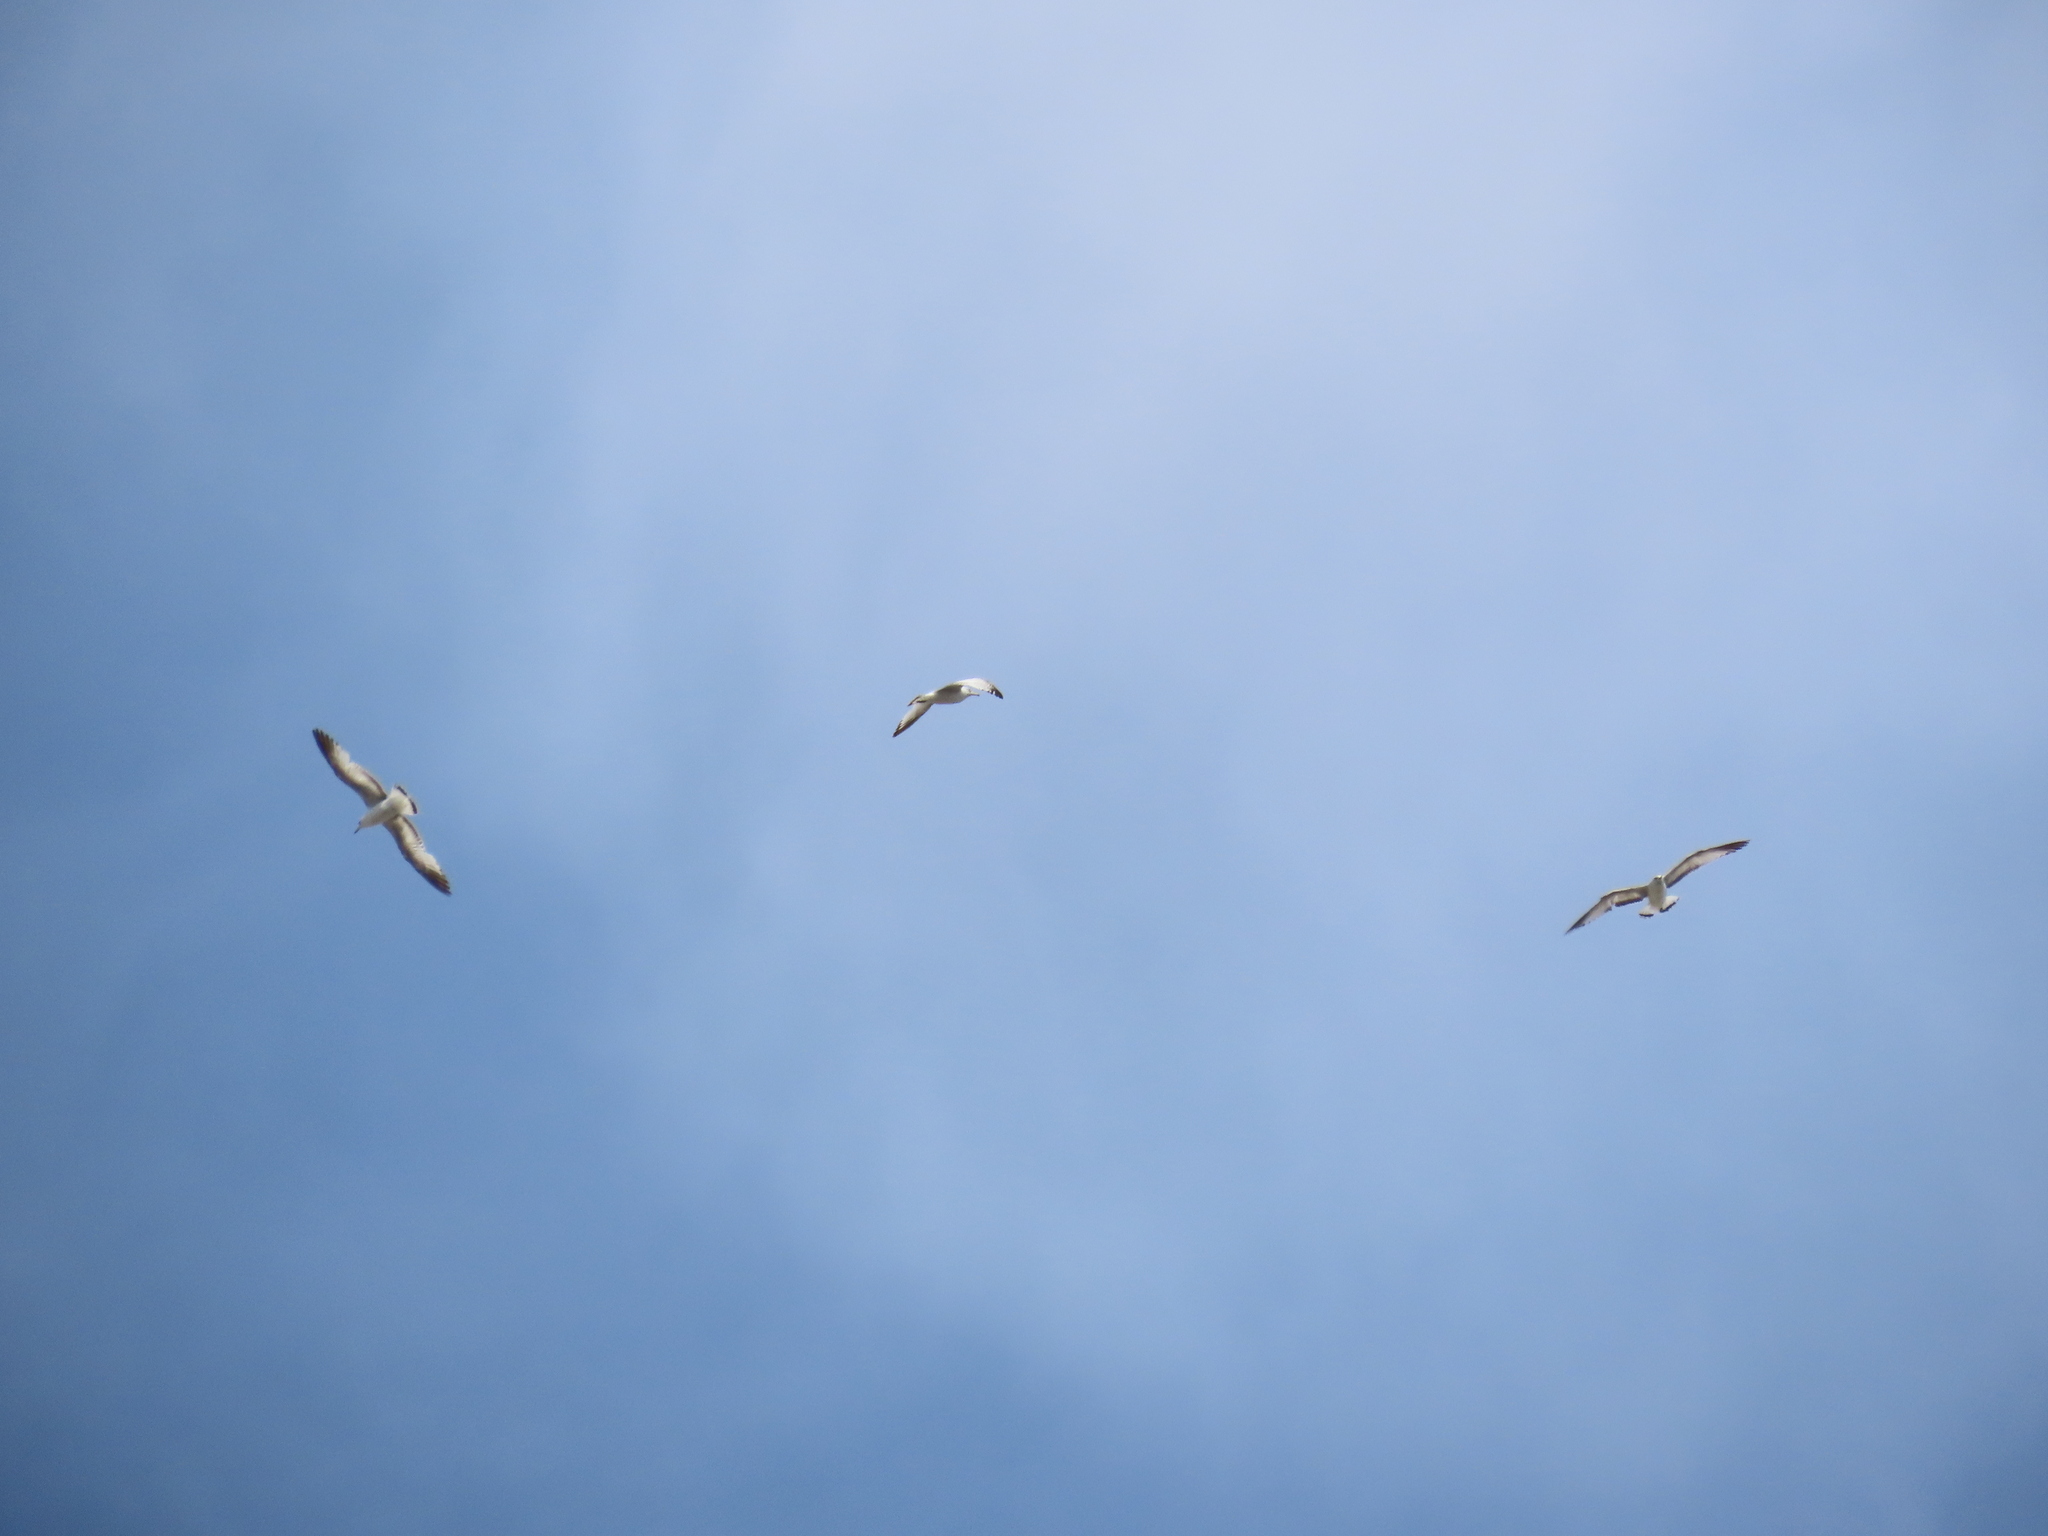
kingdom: Animalia
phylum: Chordata
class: Aves
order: Charadriiformes
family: Laridae
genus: Larus
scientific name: Larus delawarensis
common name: Ring-billed gull
